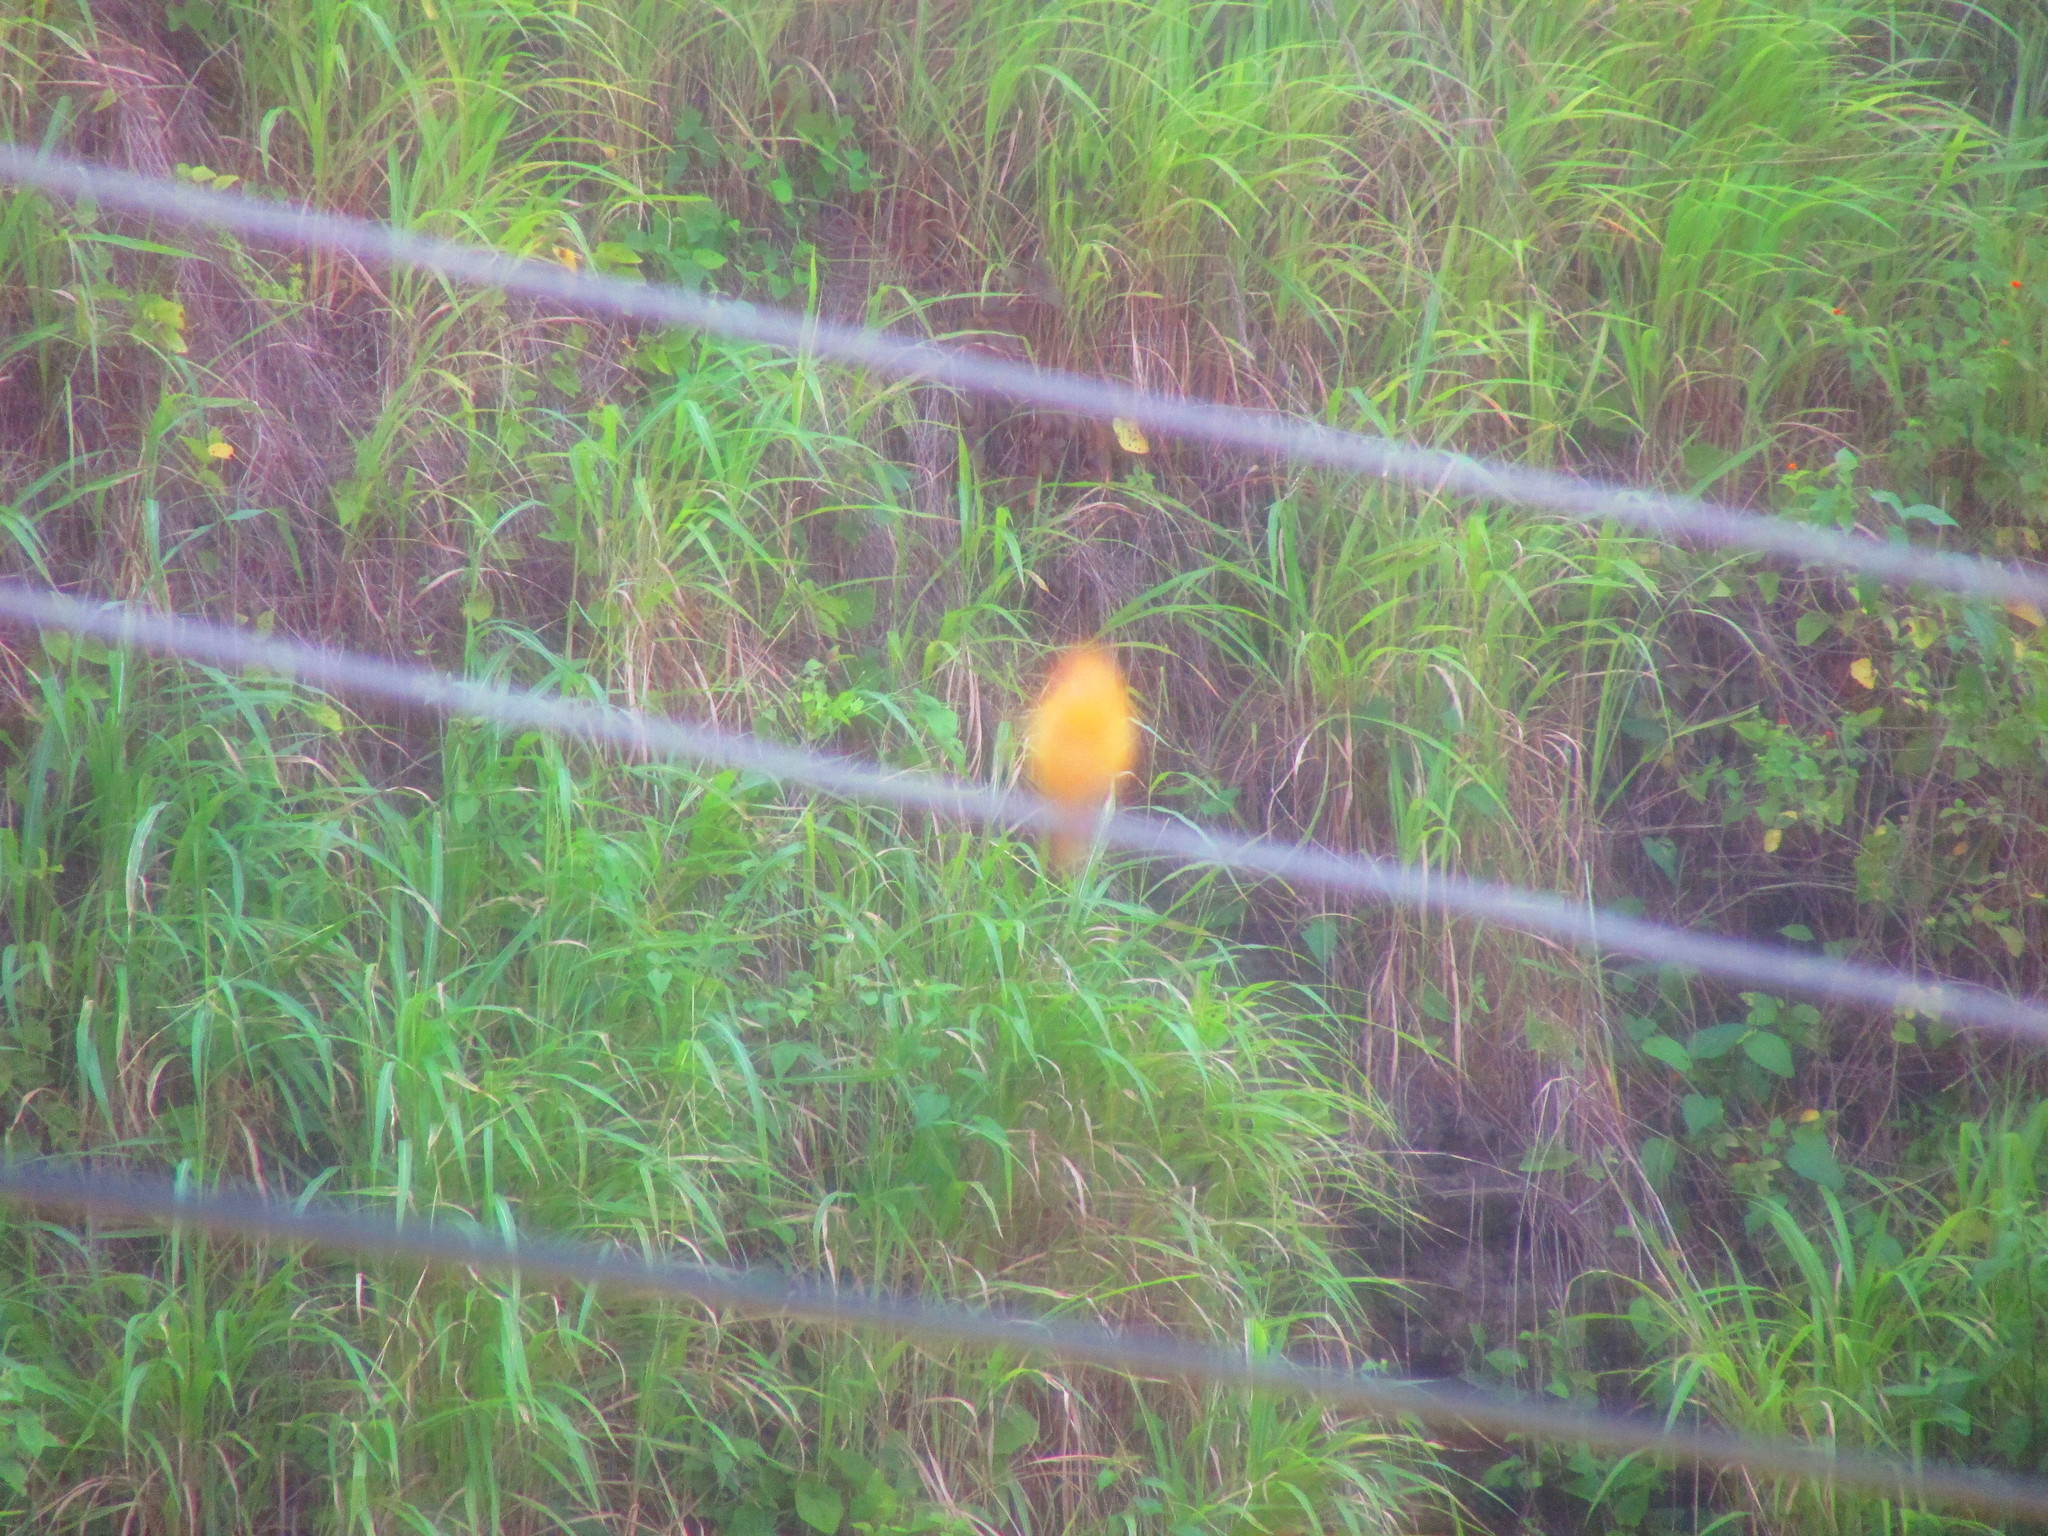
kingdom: Animalia
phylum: Chordata
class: Aves
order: Passeriformes
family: Thraupidae
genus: Sicalis
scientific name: Sicalis flaveola
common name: Saffron finch
